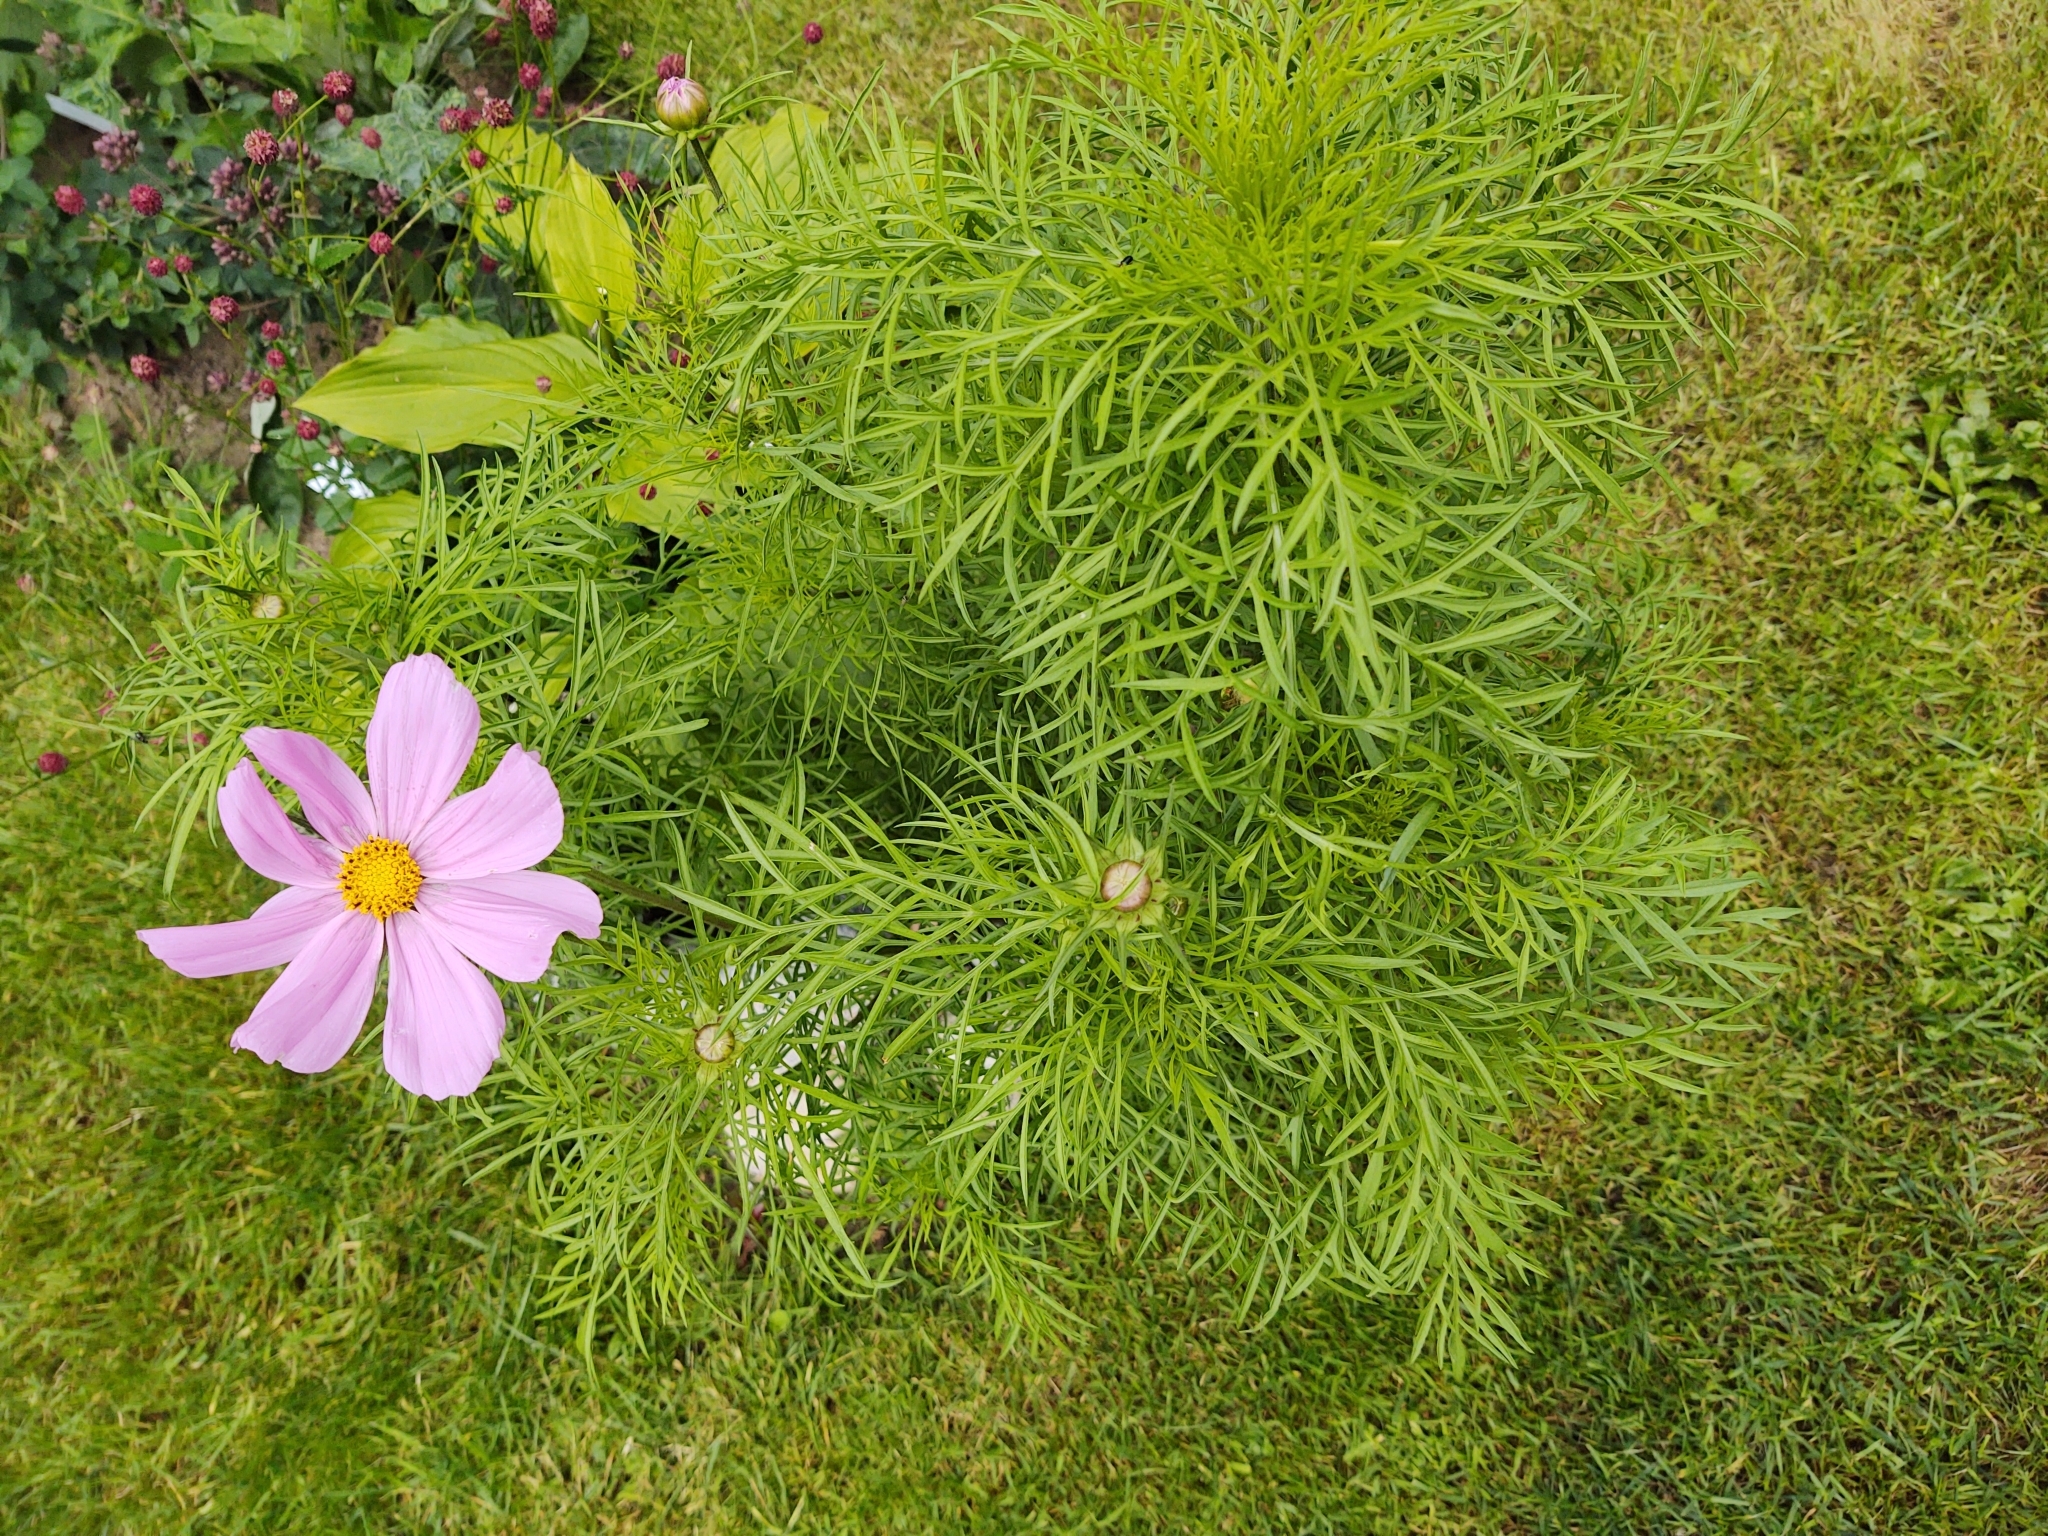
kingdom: Plantae
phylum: Tracheophyta
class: Magnoliopsida
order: Asterales
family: Asteraceae
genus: Cosmos
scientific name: Cosmos bipinnatus
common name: Garden cosmos
